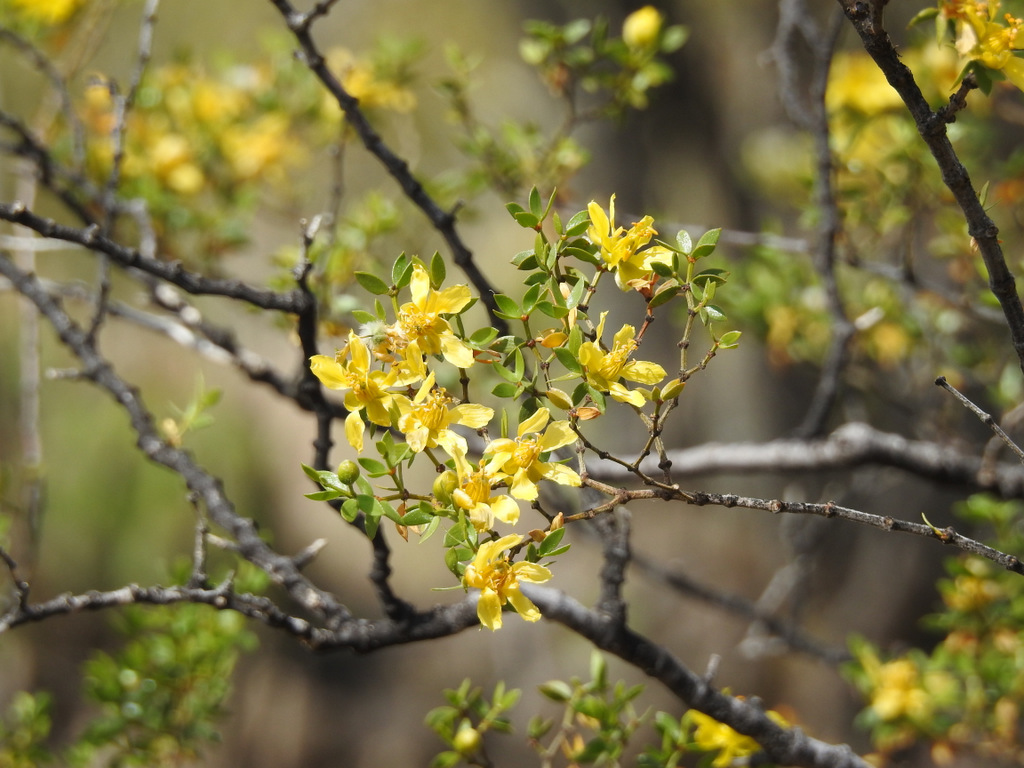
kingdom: Plantae
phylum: Tracheophyta
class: Magnoliopsida
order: Zygophyllales
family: Zygophyllaceae
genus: Larrea
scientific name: Larrea divaricata
